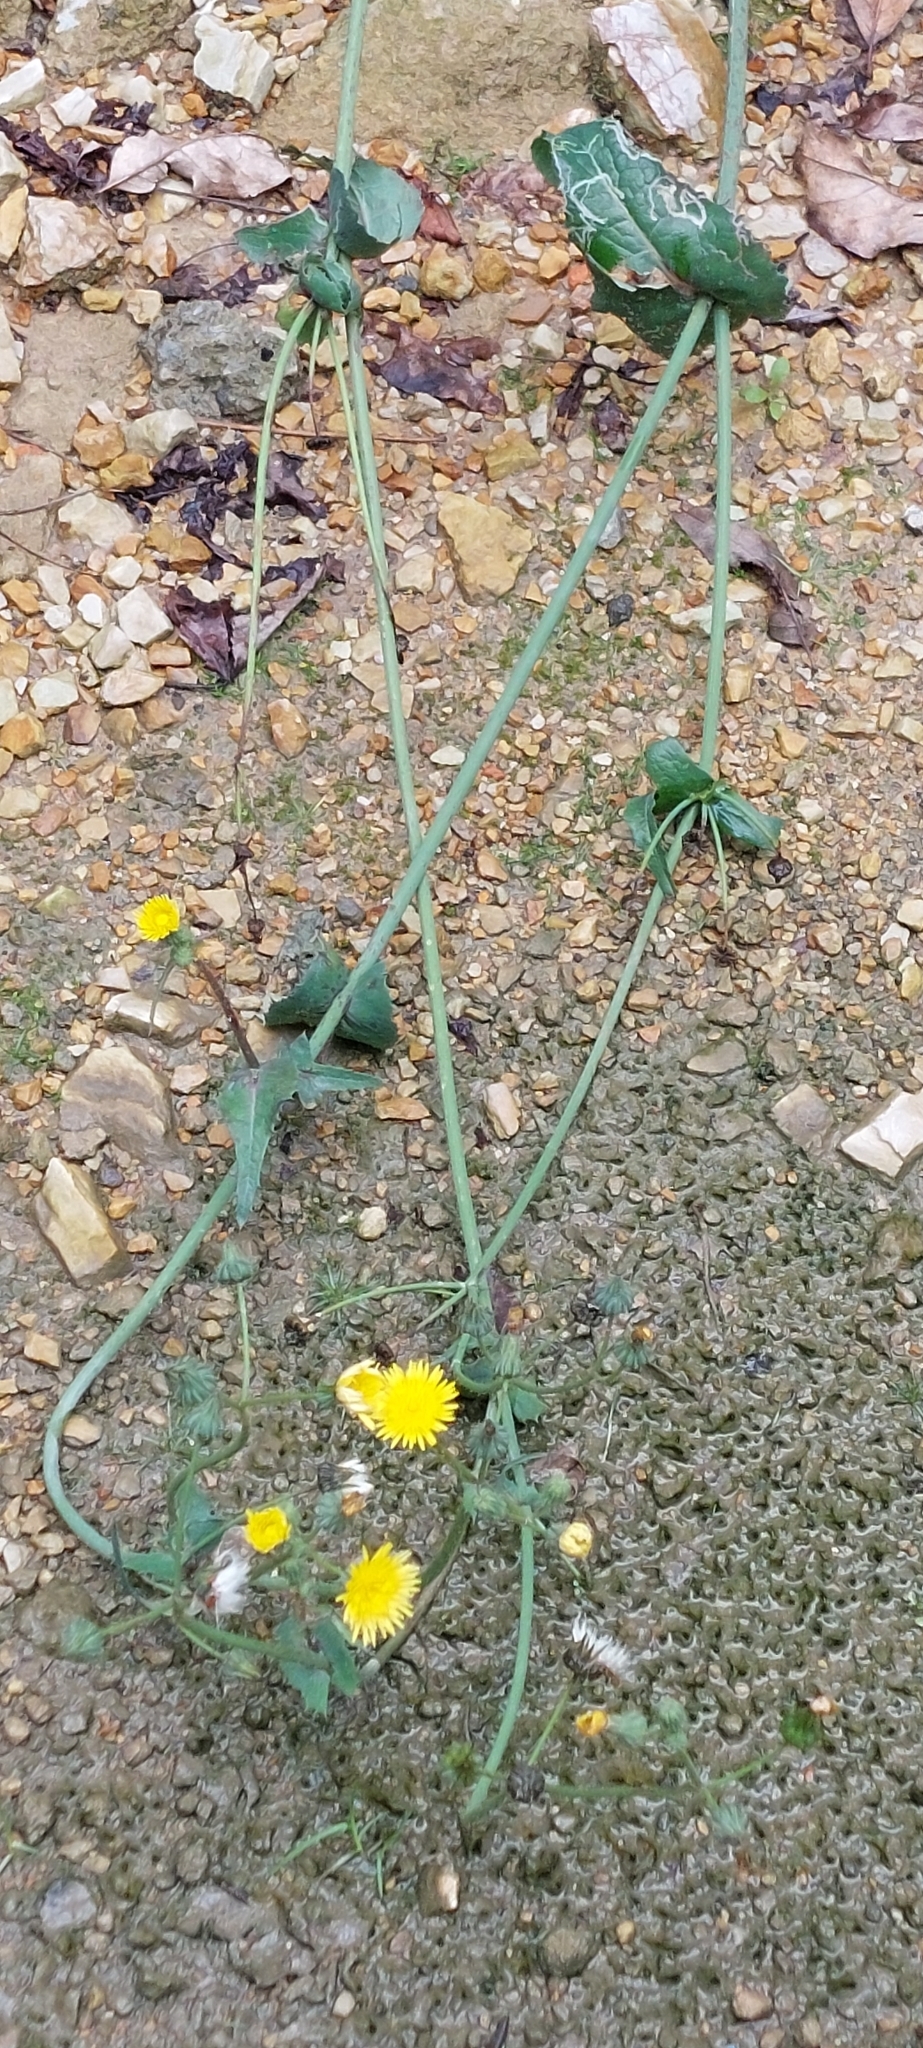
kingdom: Plantae
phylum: Tracheophyta
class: Magnoliopsida
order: Asterales
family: Asteraceae
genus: Sonchus
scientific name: Sonchus oleraceus
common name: Common sowthistle
